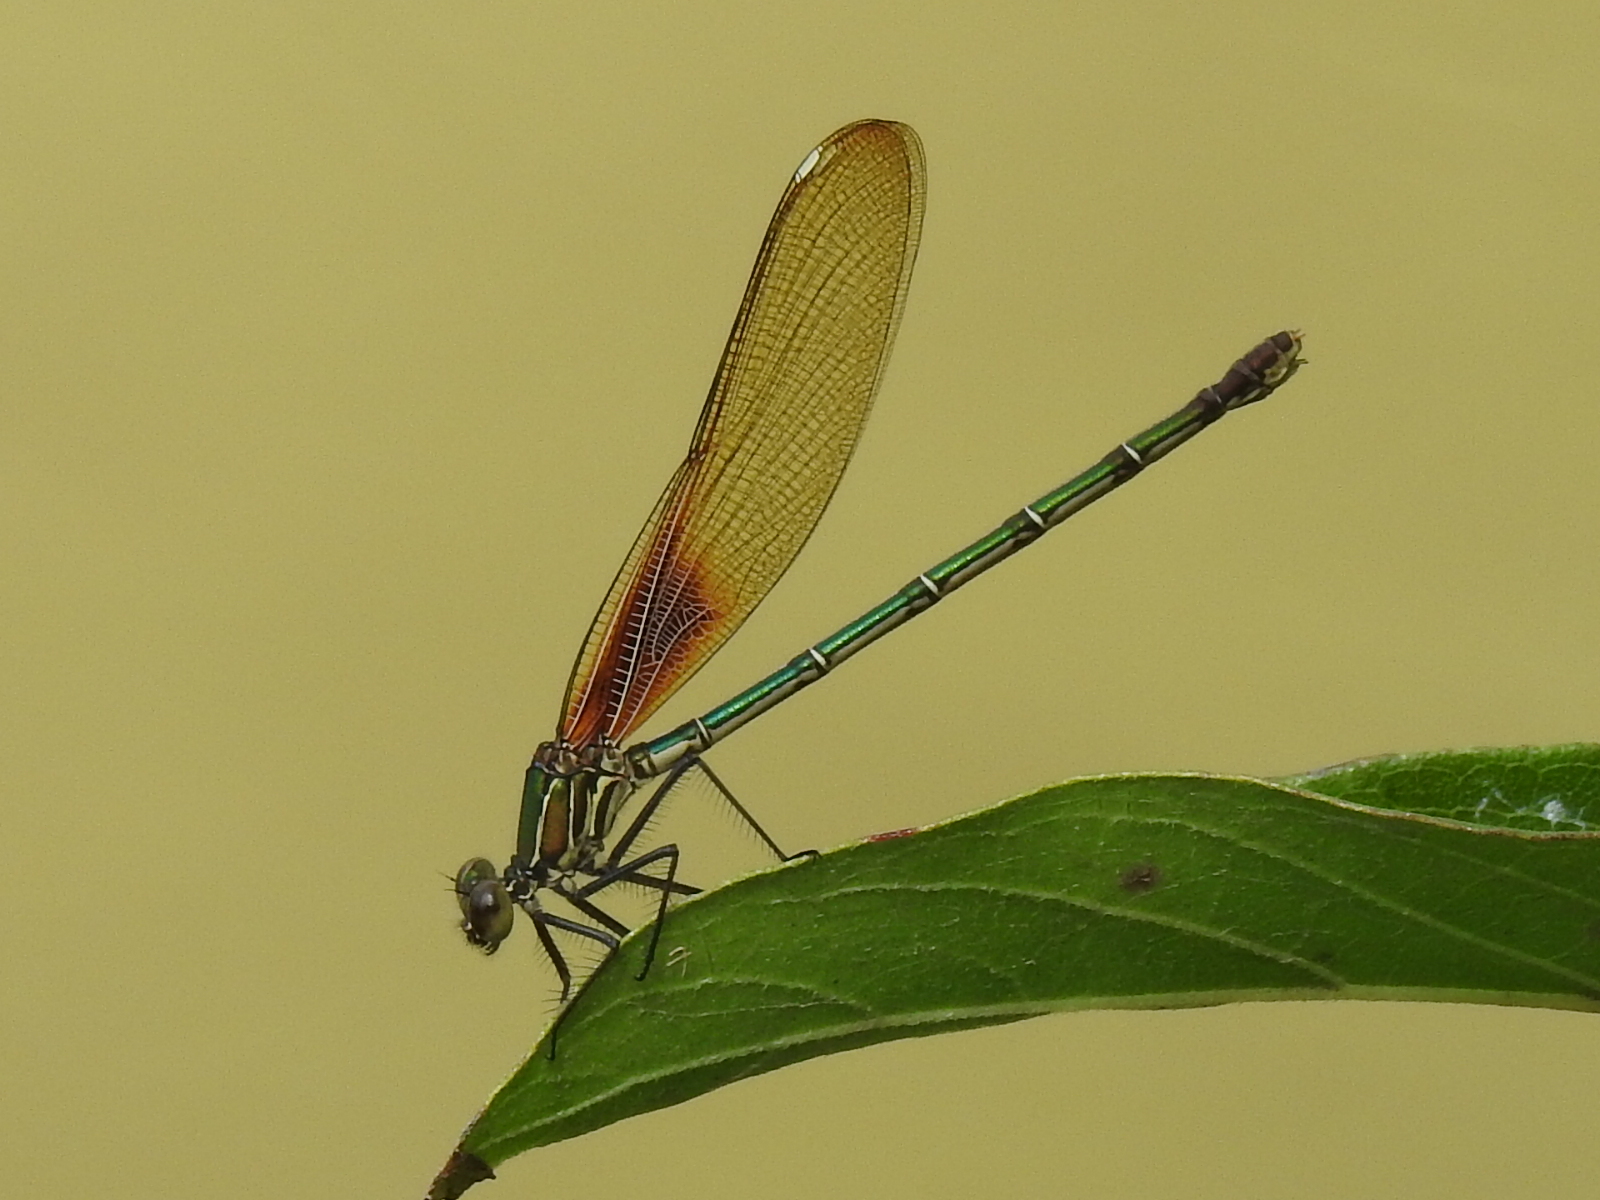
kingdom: Animalia
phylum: Arthropoda
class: Insecta
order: Odonata
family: Calopterygidae
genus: Hetaerina
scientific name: Hetaerina americana
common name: American rubyspot
